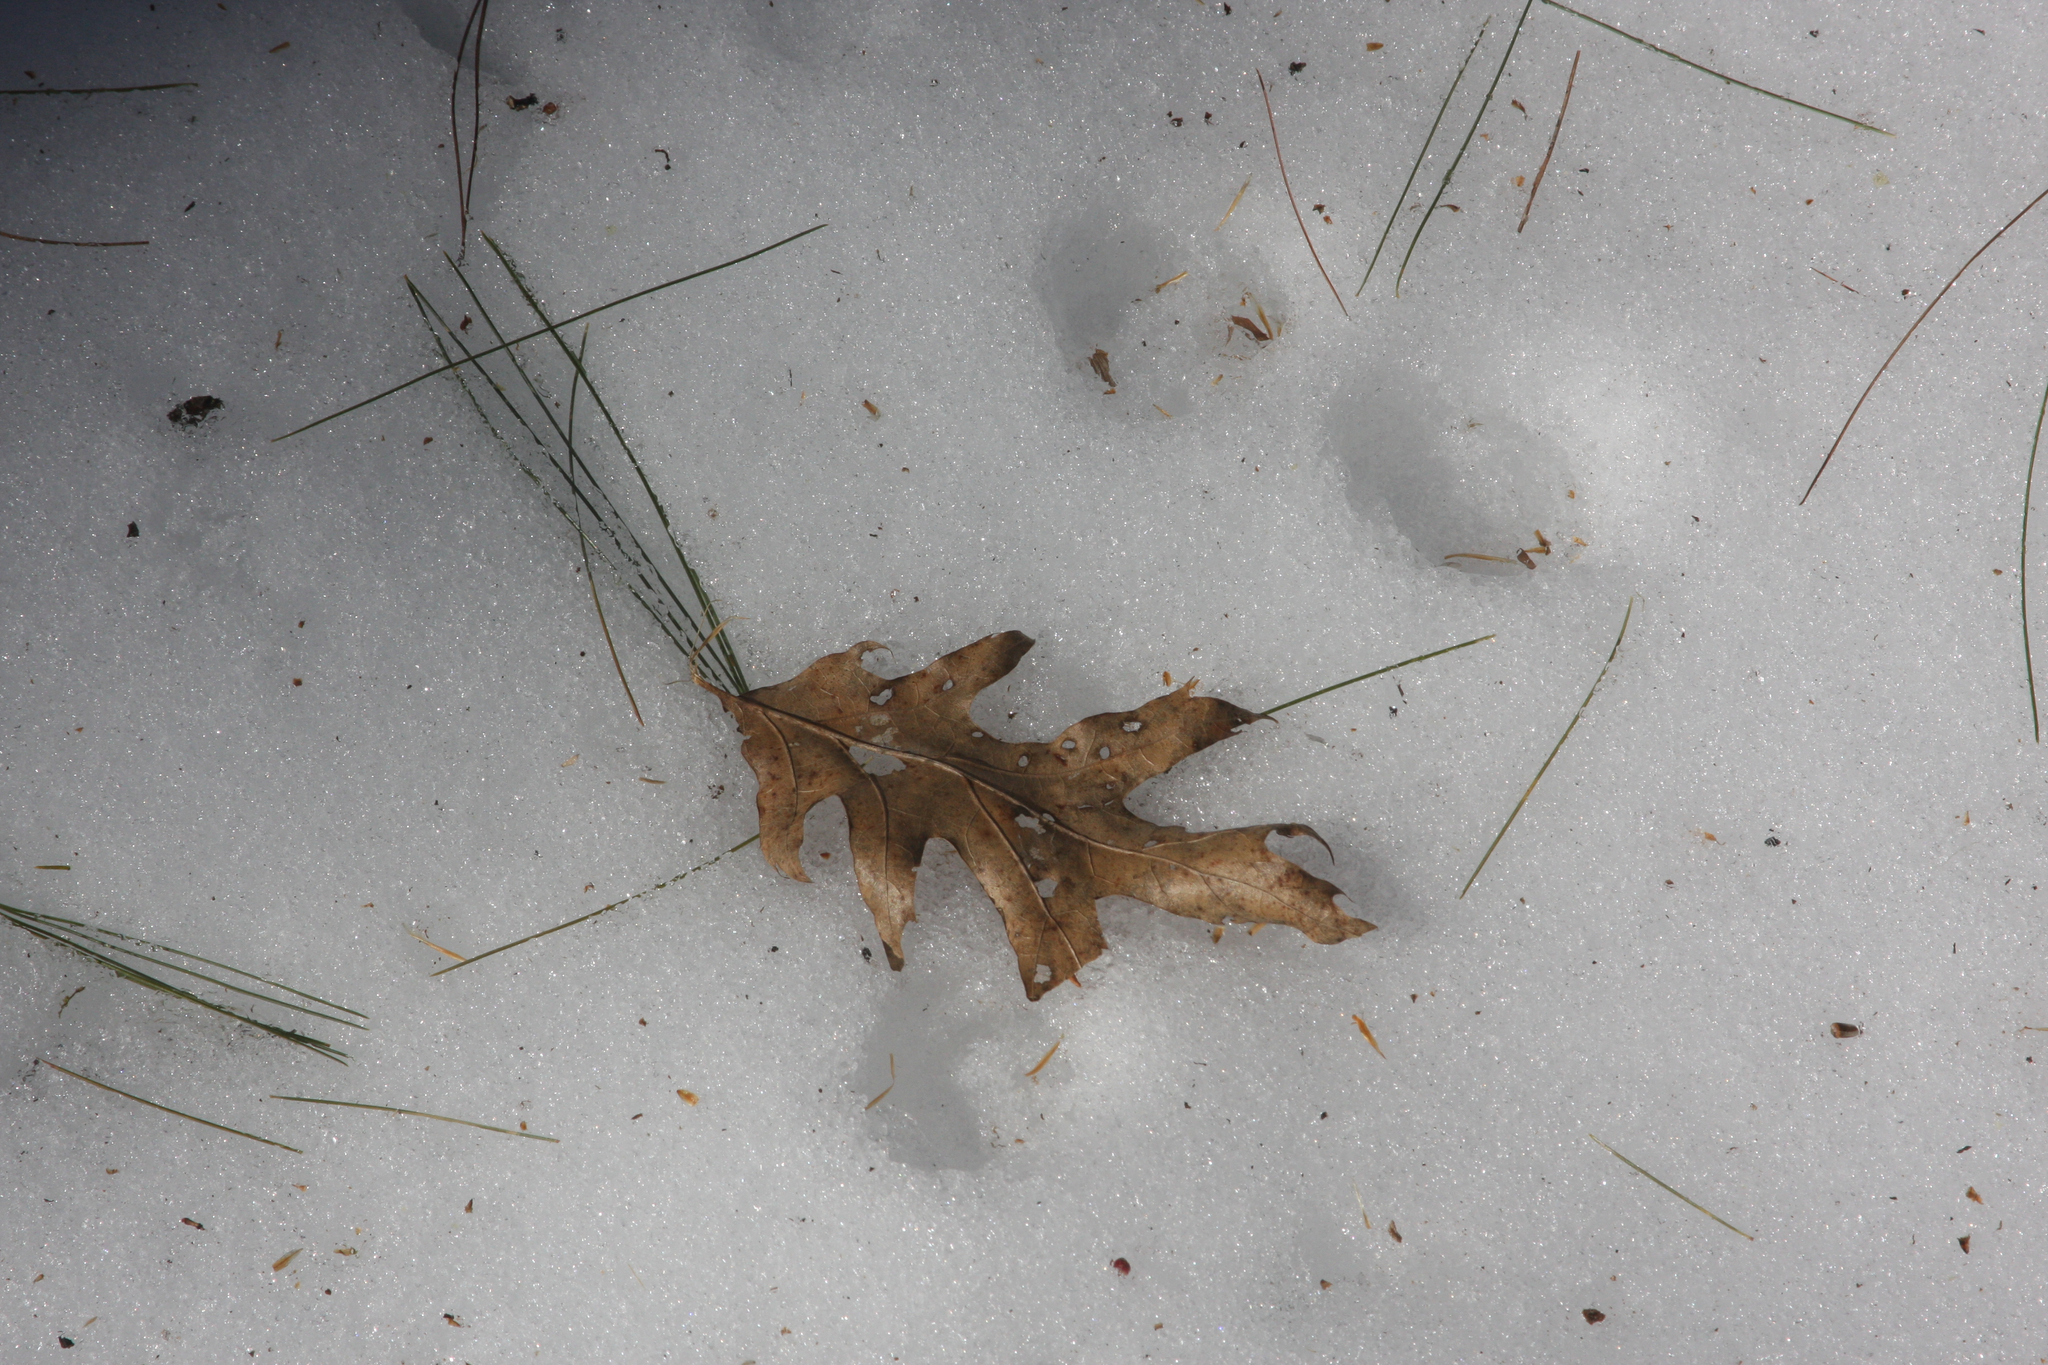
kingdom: Plantae
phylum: Tracheophyta
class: Magnoliopsida
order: Fagales
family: Fagaceae
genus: Quercus
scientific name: Quercus rubra
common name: Red oak
